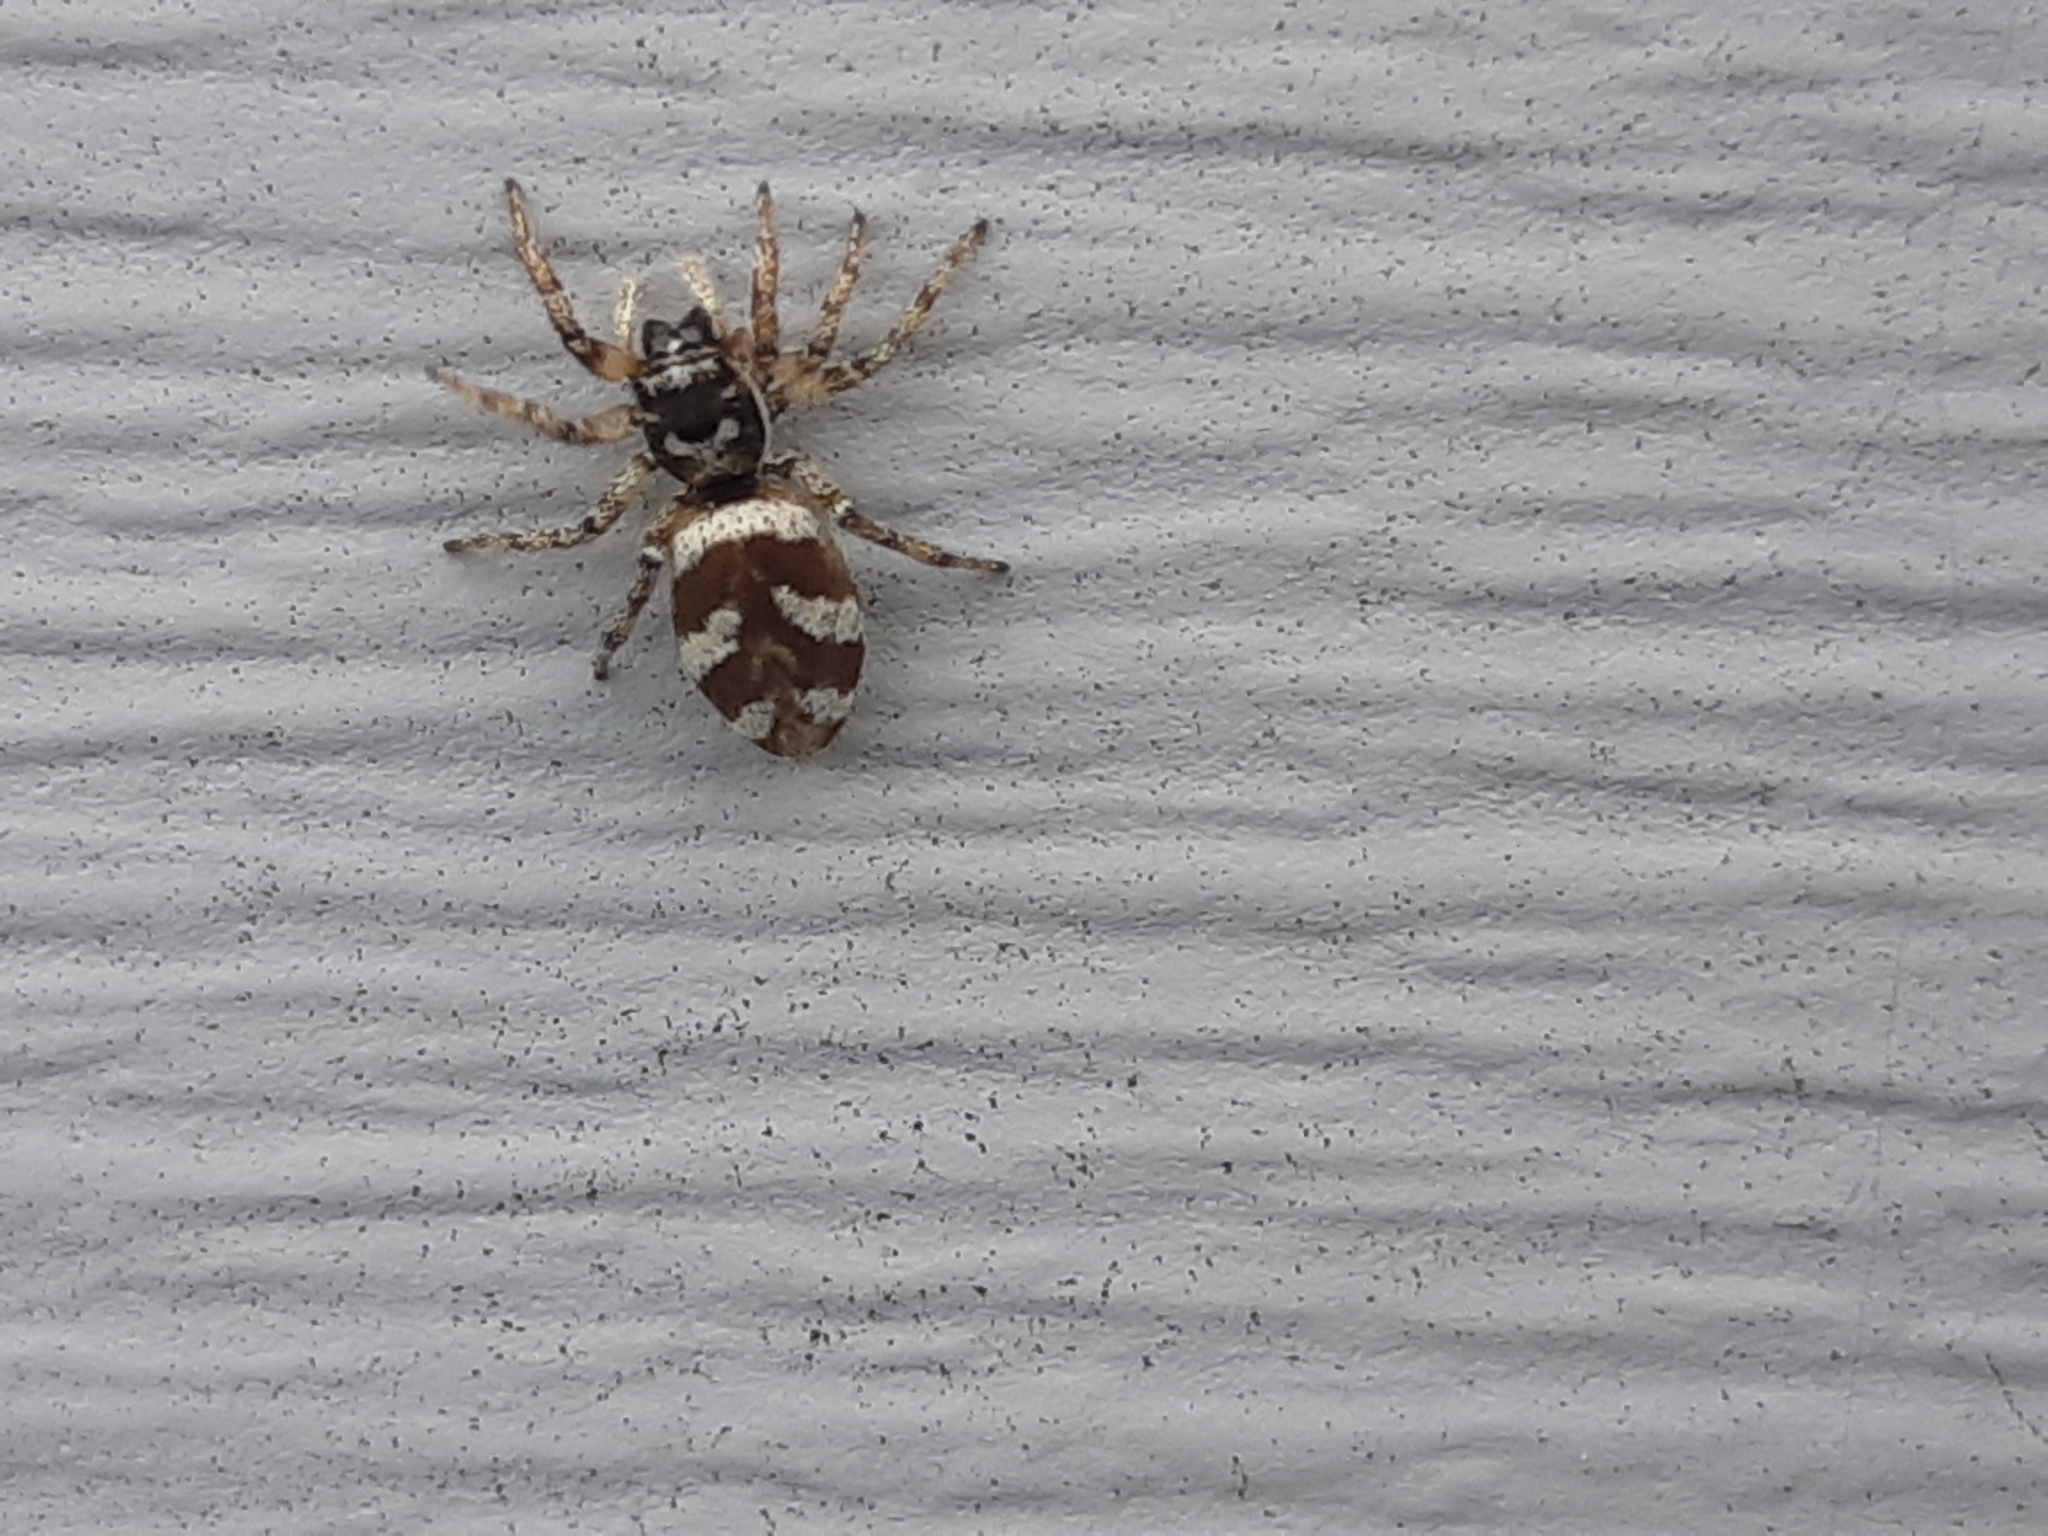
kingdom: Animalia
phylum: Arthropoda
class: Arachnida
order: Araneae
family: Salticidae
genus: Salticus
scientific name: Salticus scenicus
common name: Zebra jumper
